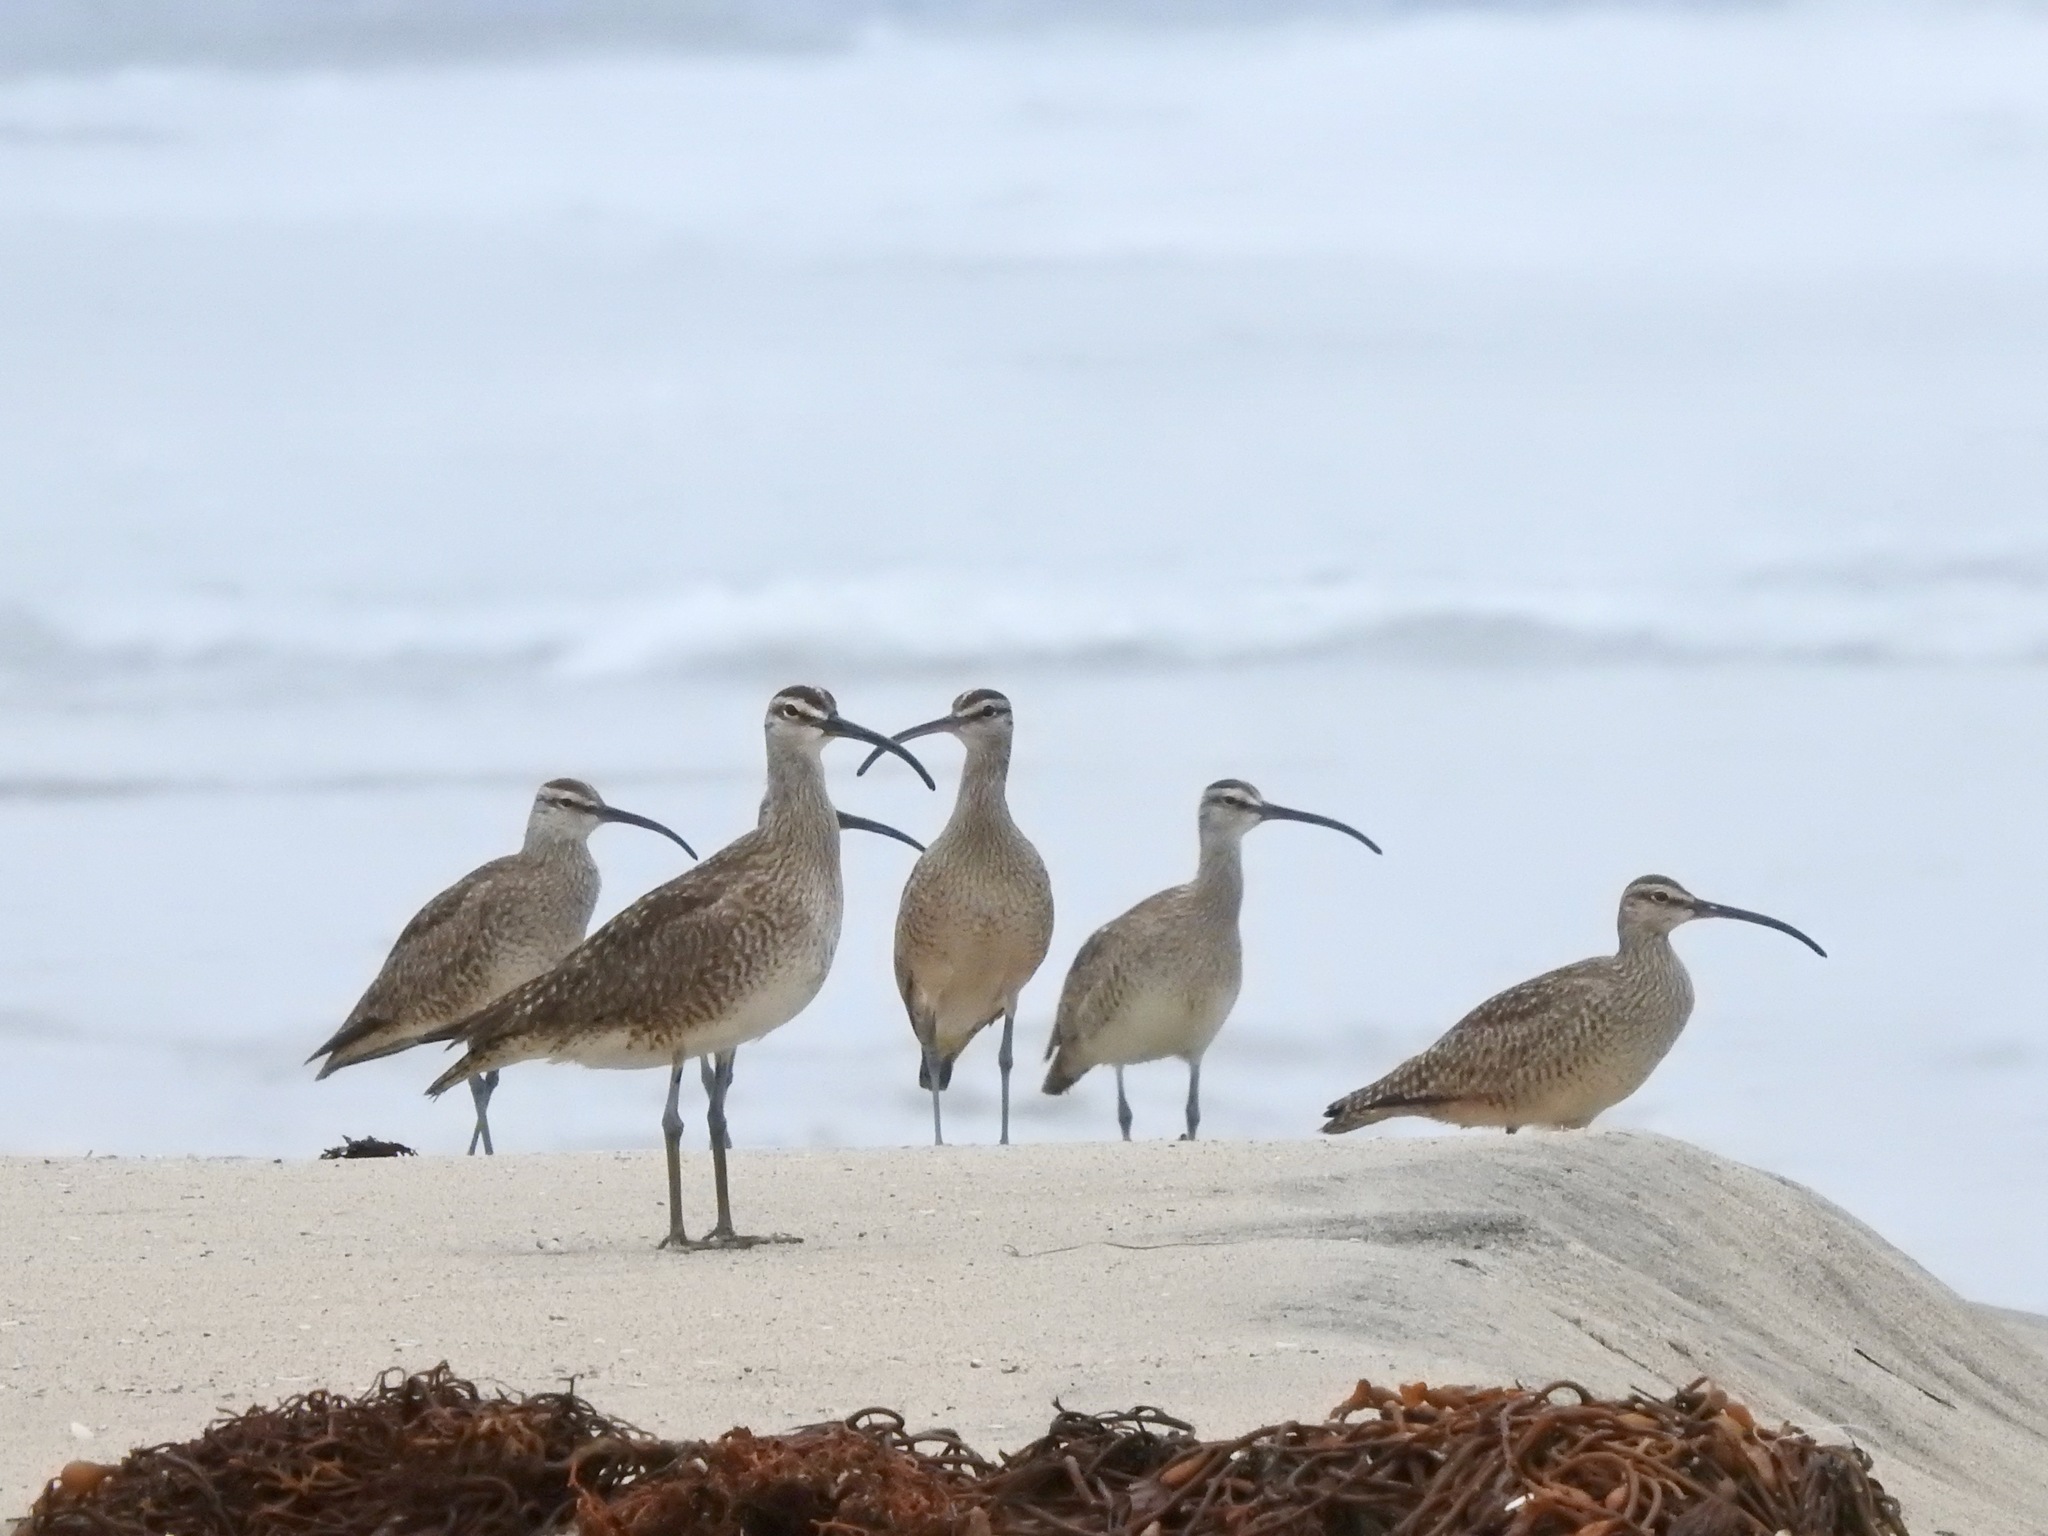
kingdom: Animalia
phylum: Chordata
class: Aves
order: Charadriiformes
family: Scolopacidae
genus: Numenius
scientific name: Numenius phaeopus
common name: Whimbrel
